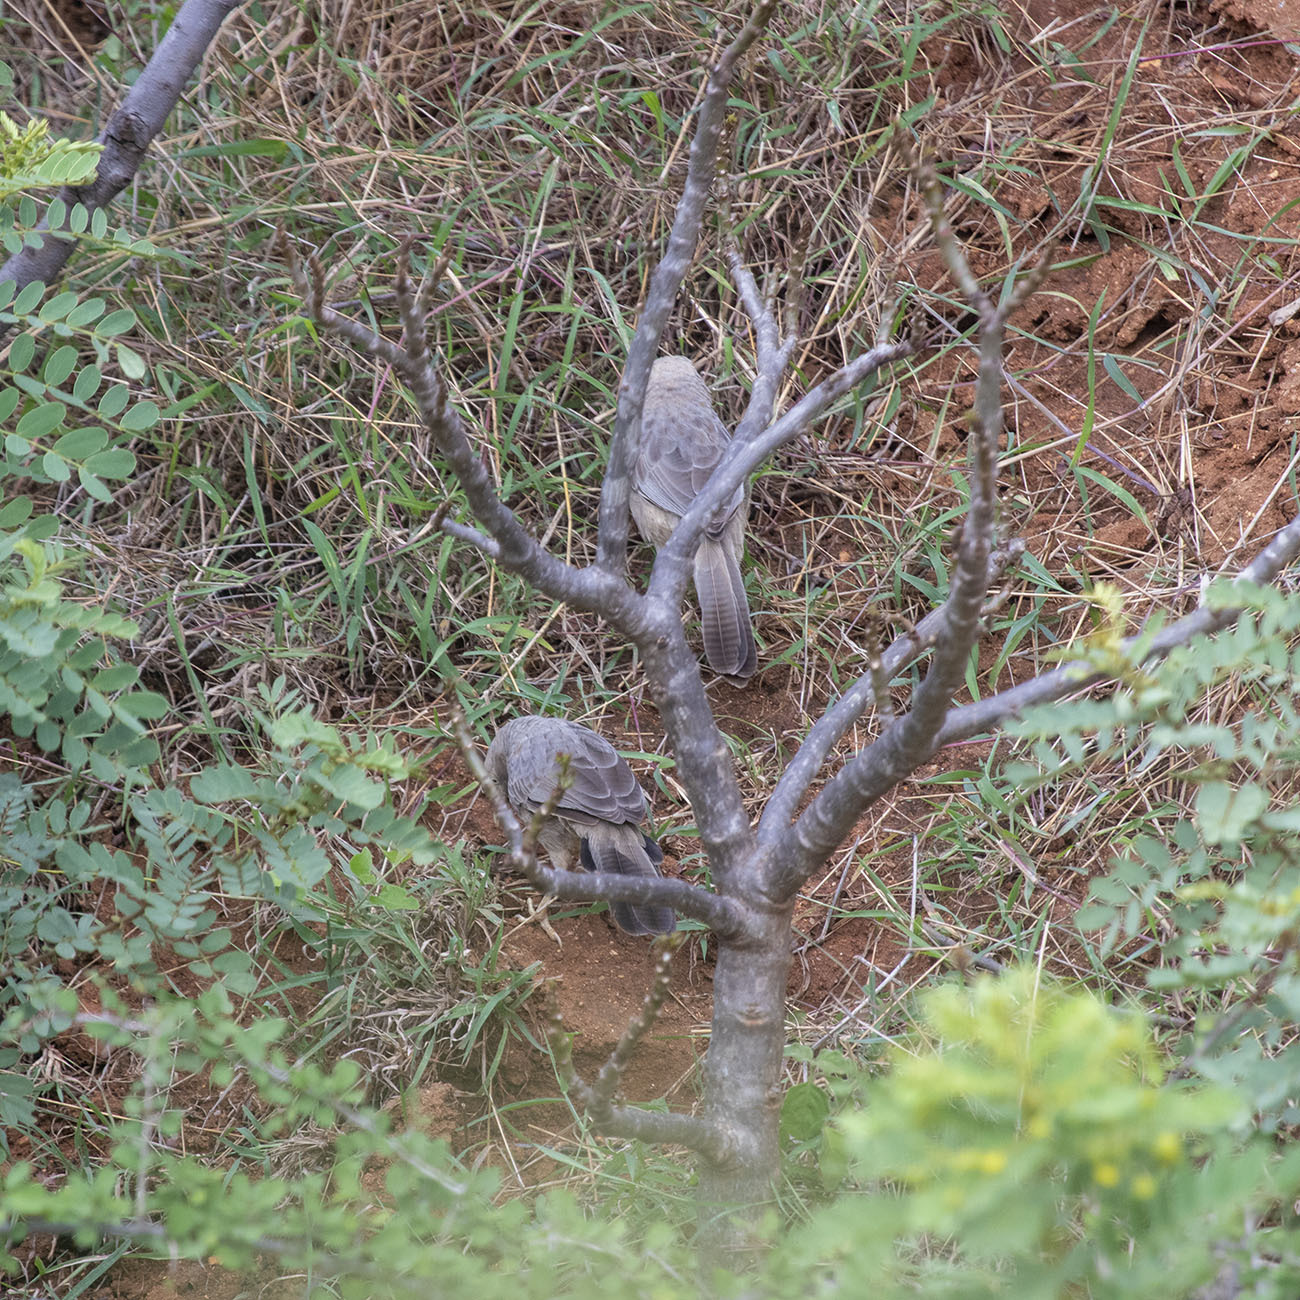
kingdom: Animalia
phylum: Chordata
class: Aves
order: Passeriformes
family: Leiothrichidae
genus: Turdoides
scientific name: Turdoides affinis
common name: Yellow-billed babbler
